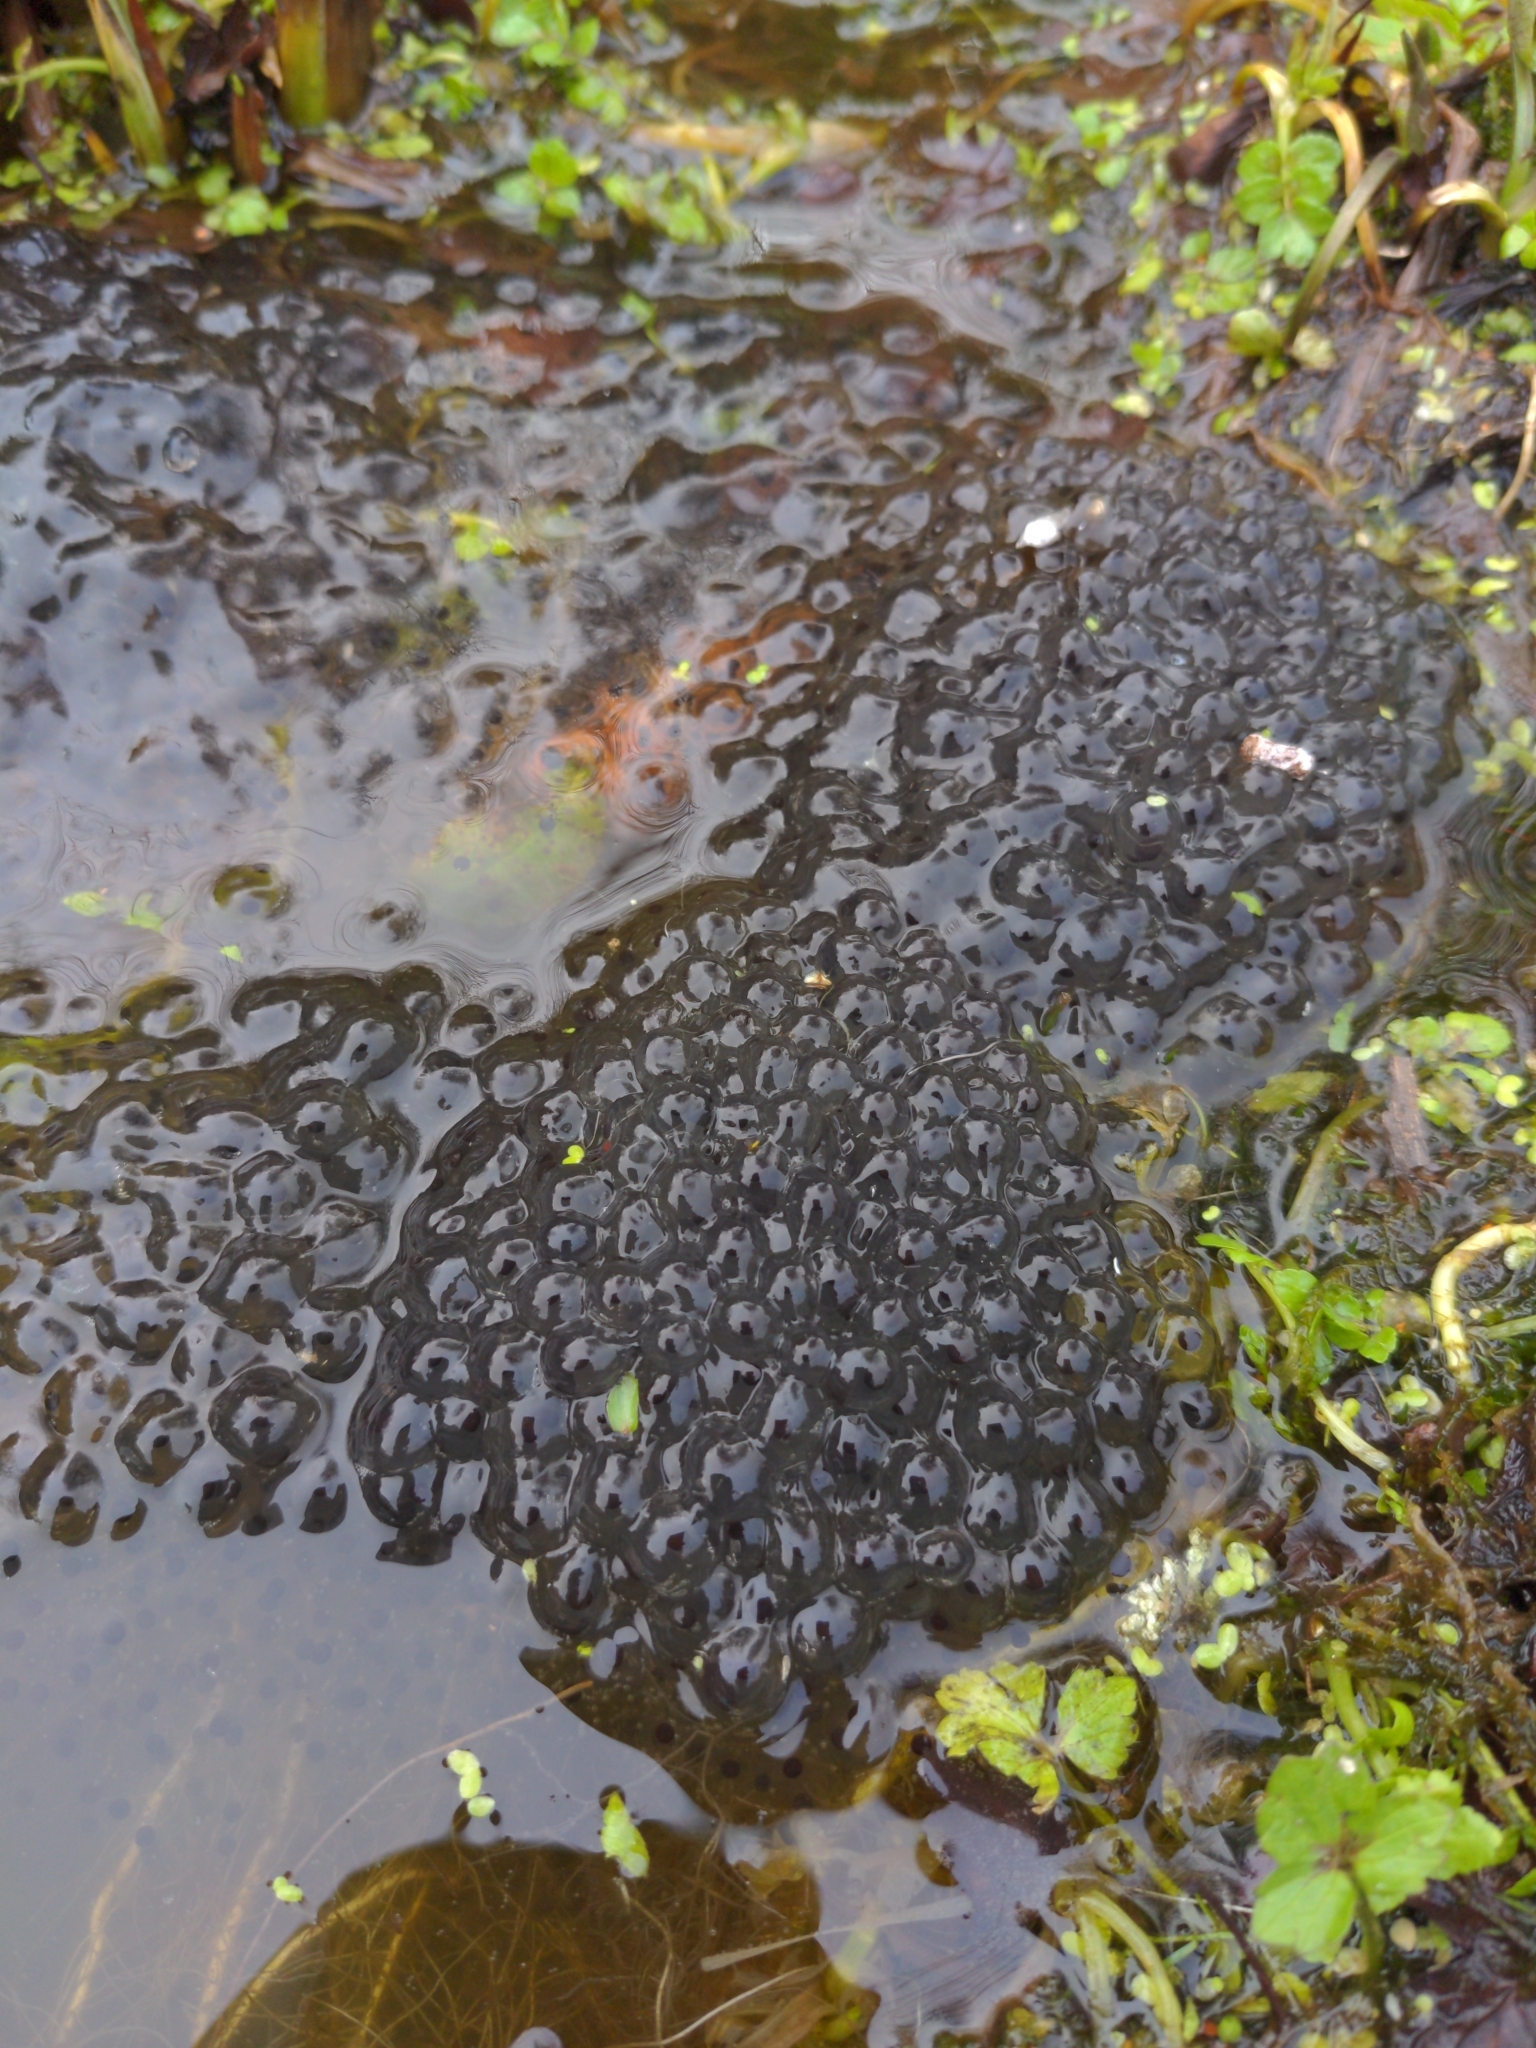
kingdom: Animalia
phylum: Chordata
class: Amphibia
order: Anura
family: Ranidae
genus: Rana
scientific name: Rana temporaria
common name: Common frog
